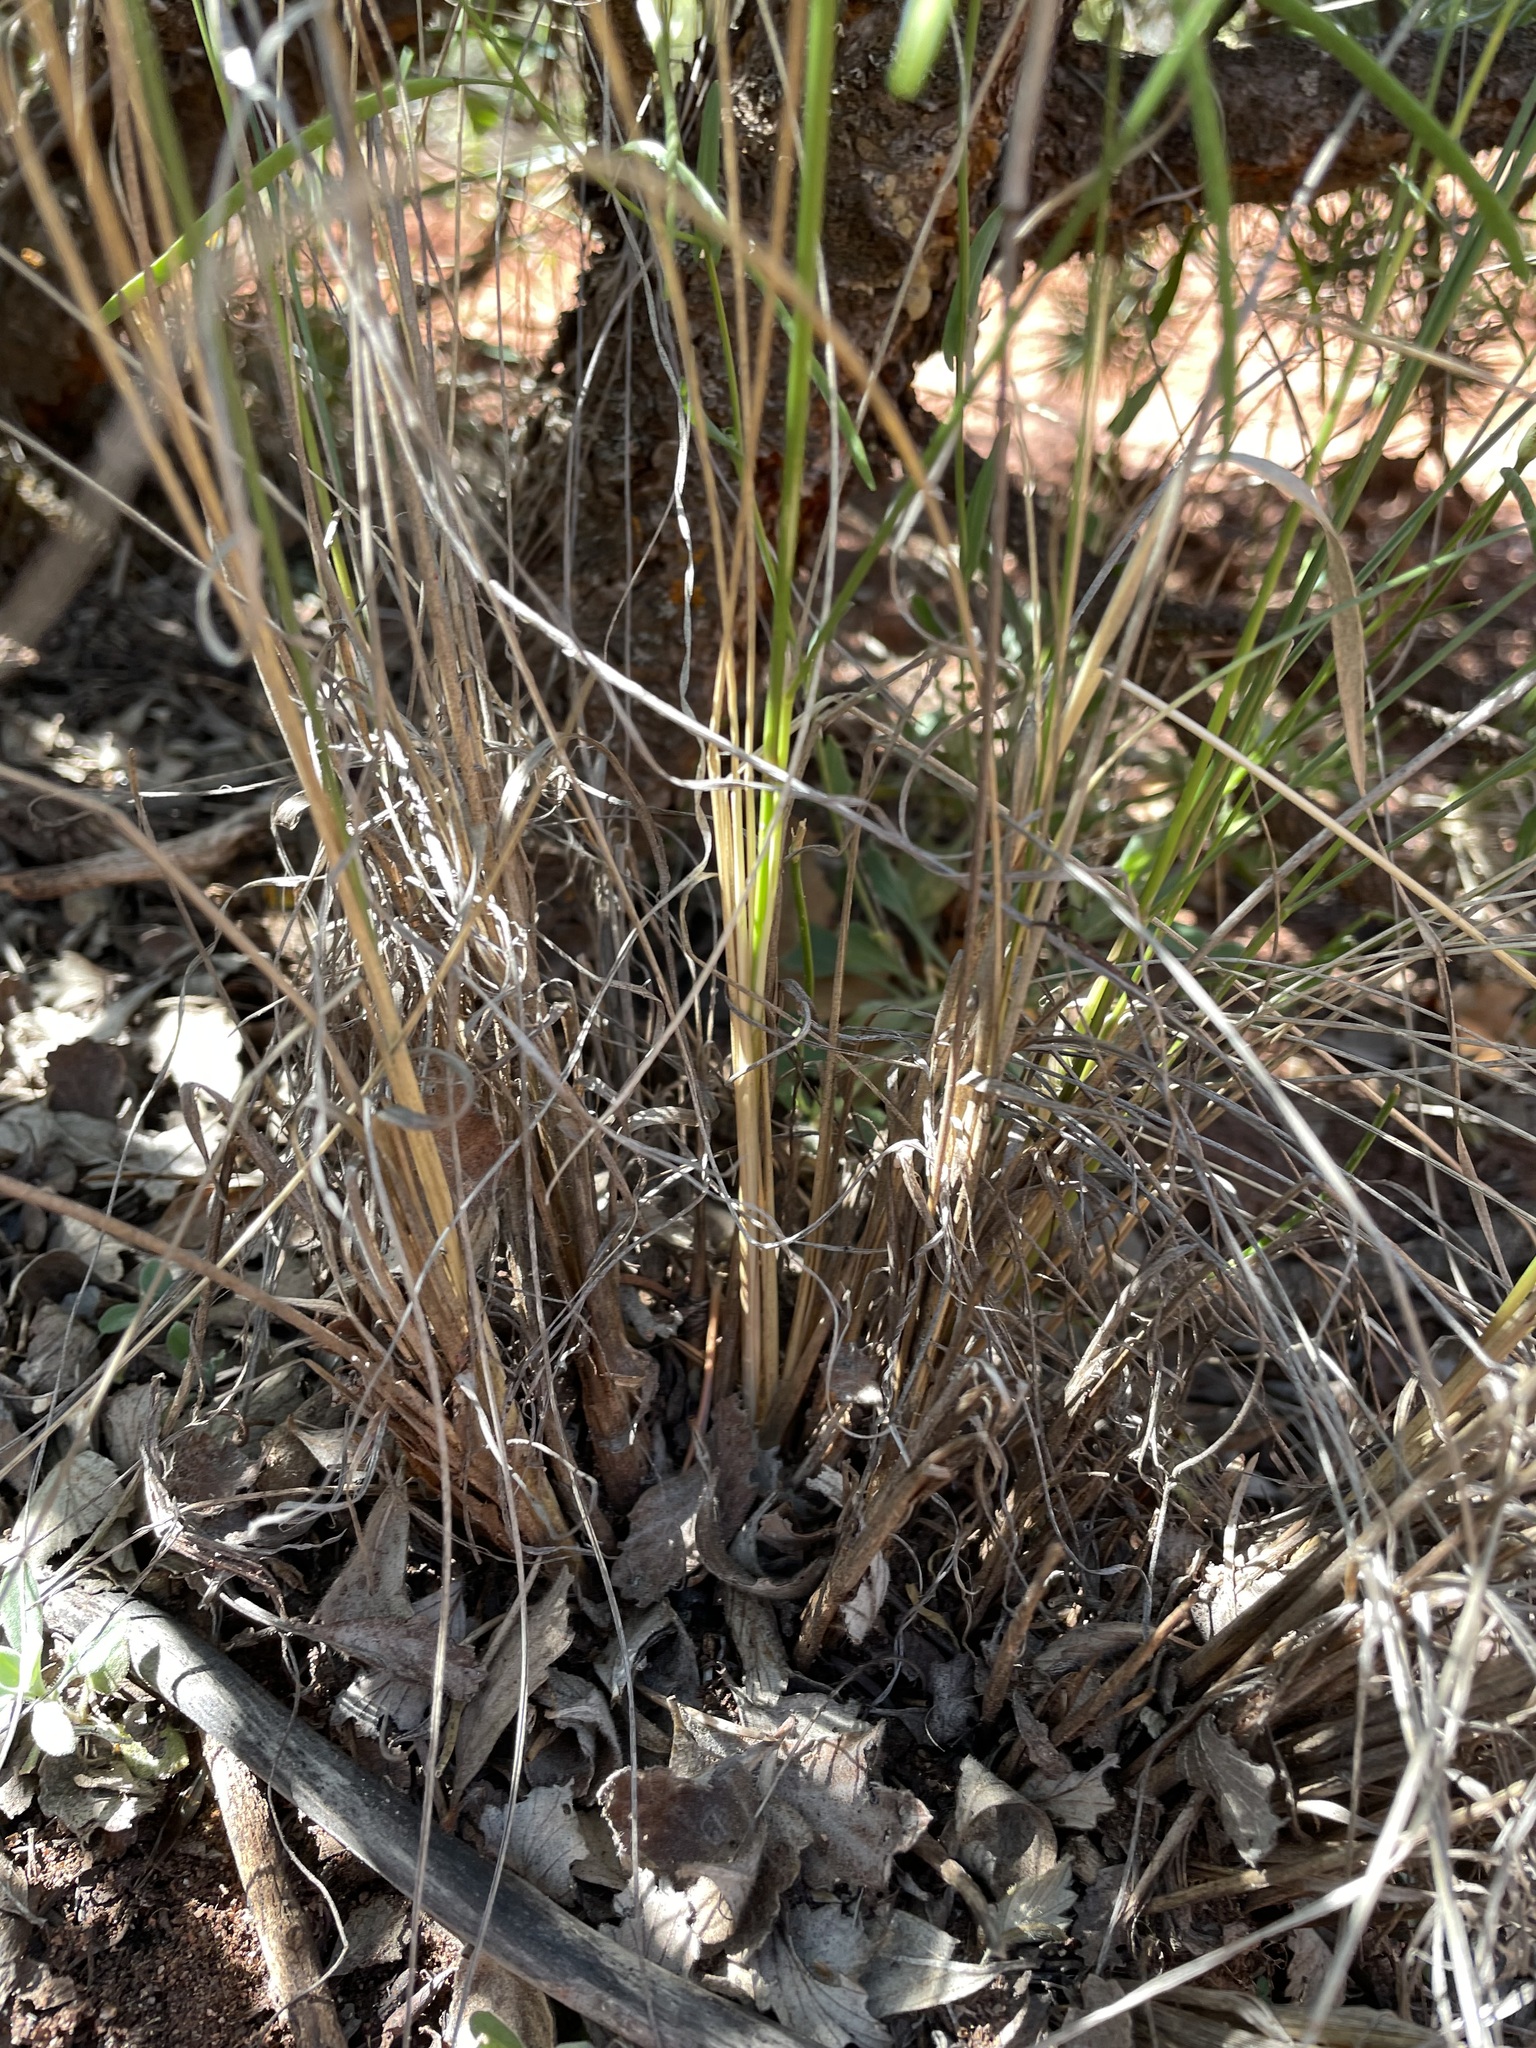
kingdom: Plantae
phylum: Tracheophyta
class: Liliopsida
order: Poales
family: Poaceae
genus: Eriocoma
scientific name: Eriocoma hymenoides
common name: Indian mountain ricegrass
